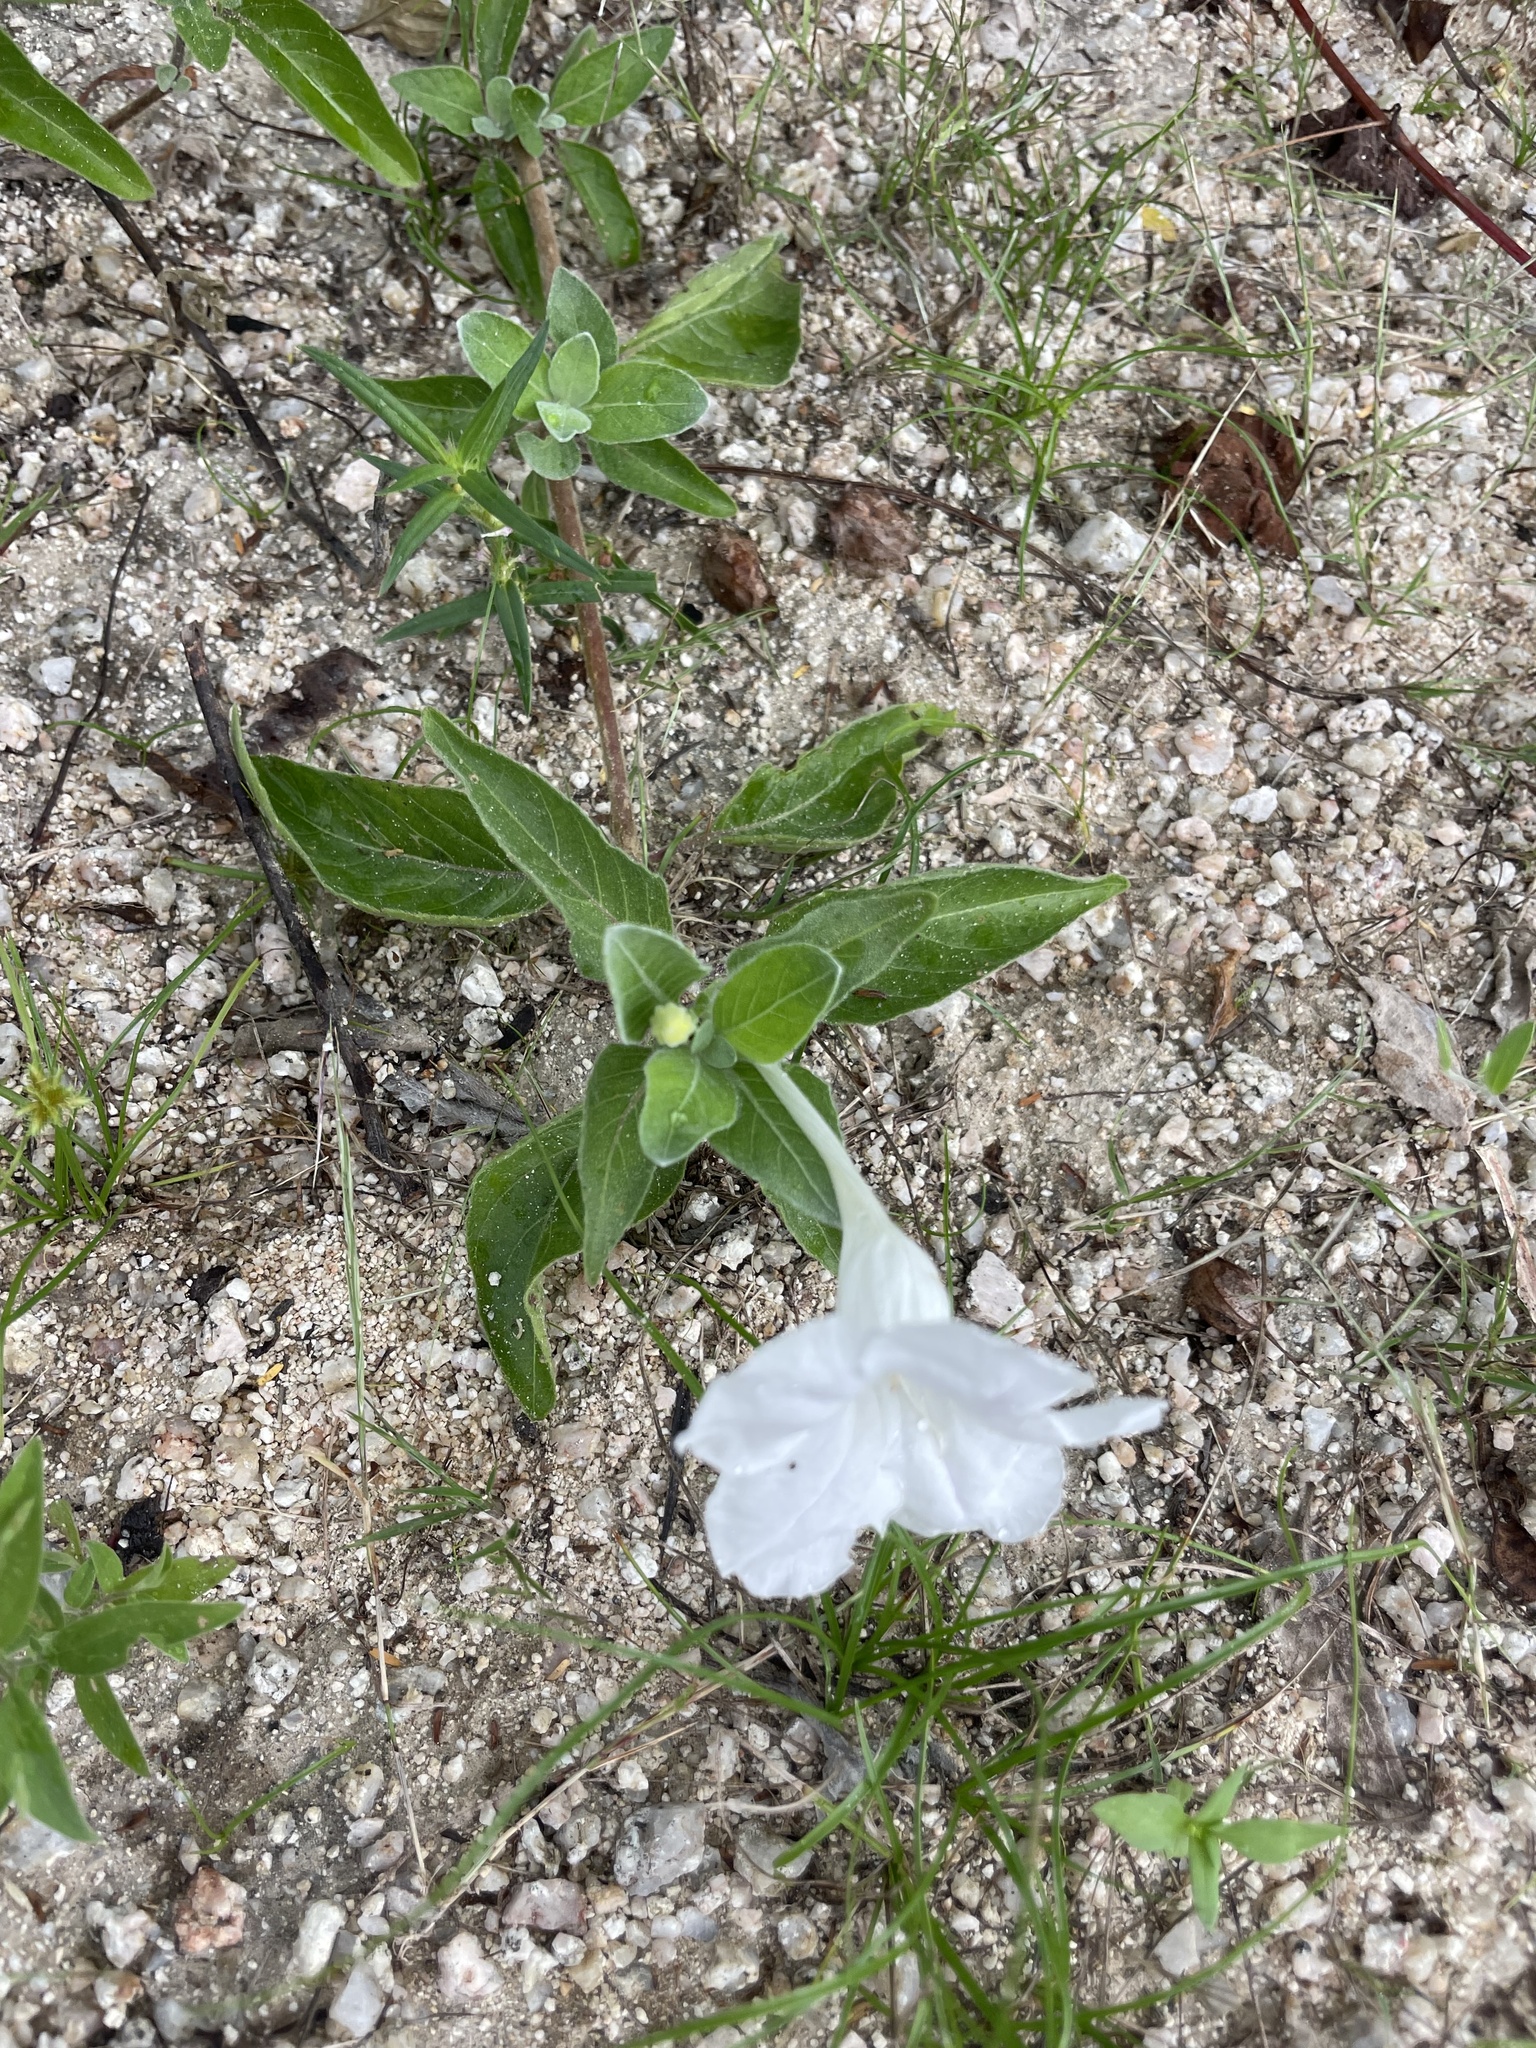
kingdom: Plantae
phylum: Tracheophyta
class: Magnoliopsida
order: Lamiales
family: Acanthaceae
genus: Ruellia
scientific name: Ruellia leucantha
